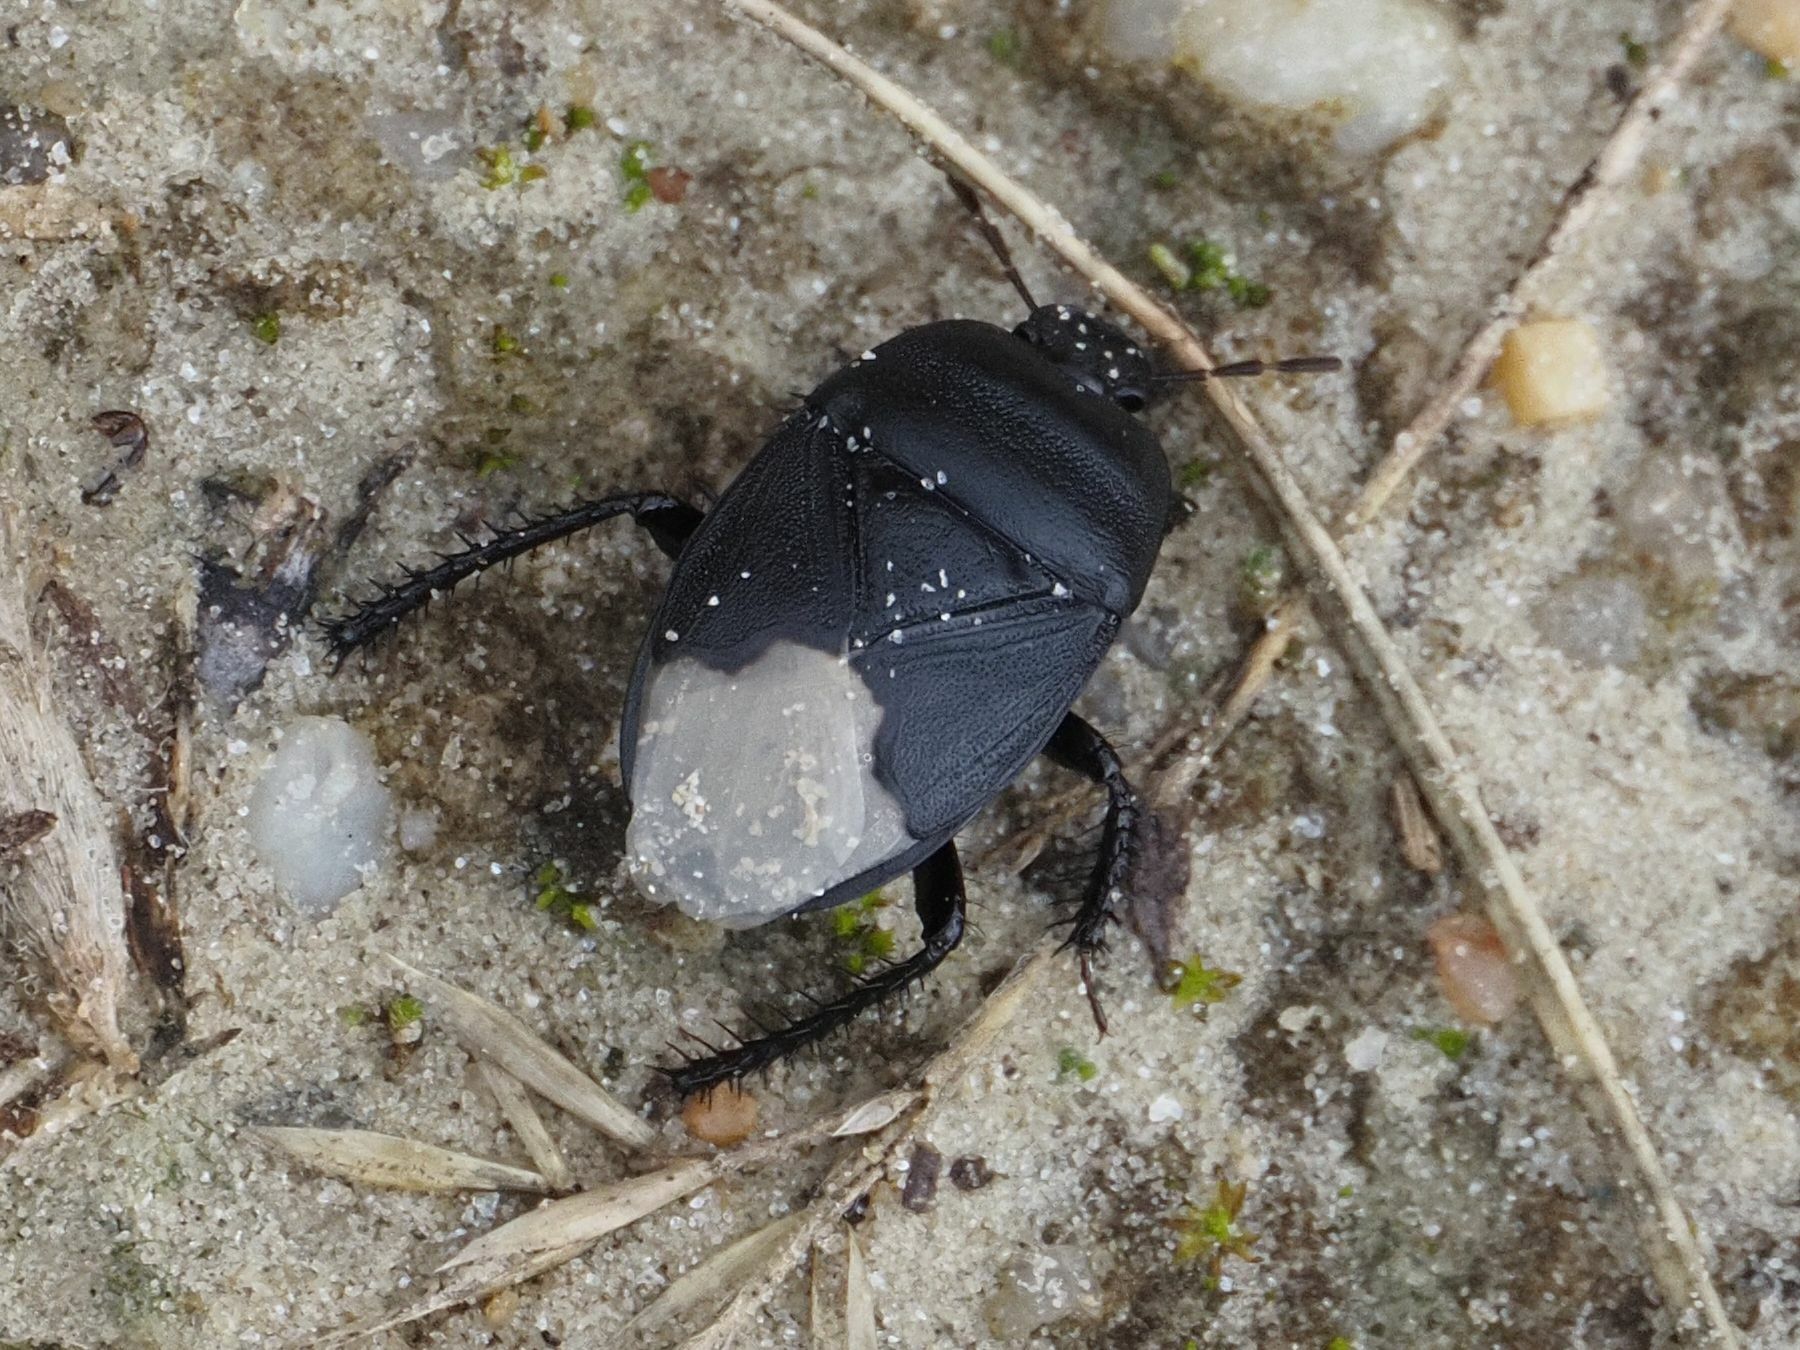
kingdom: Animalia
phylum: Arthropoda
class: Insecta
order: Hemiptera
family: Cydnidae
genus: Cydnus
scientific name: Cydnus aterrimus
